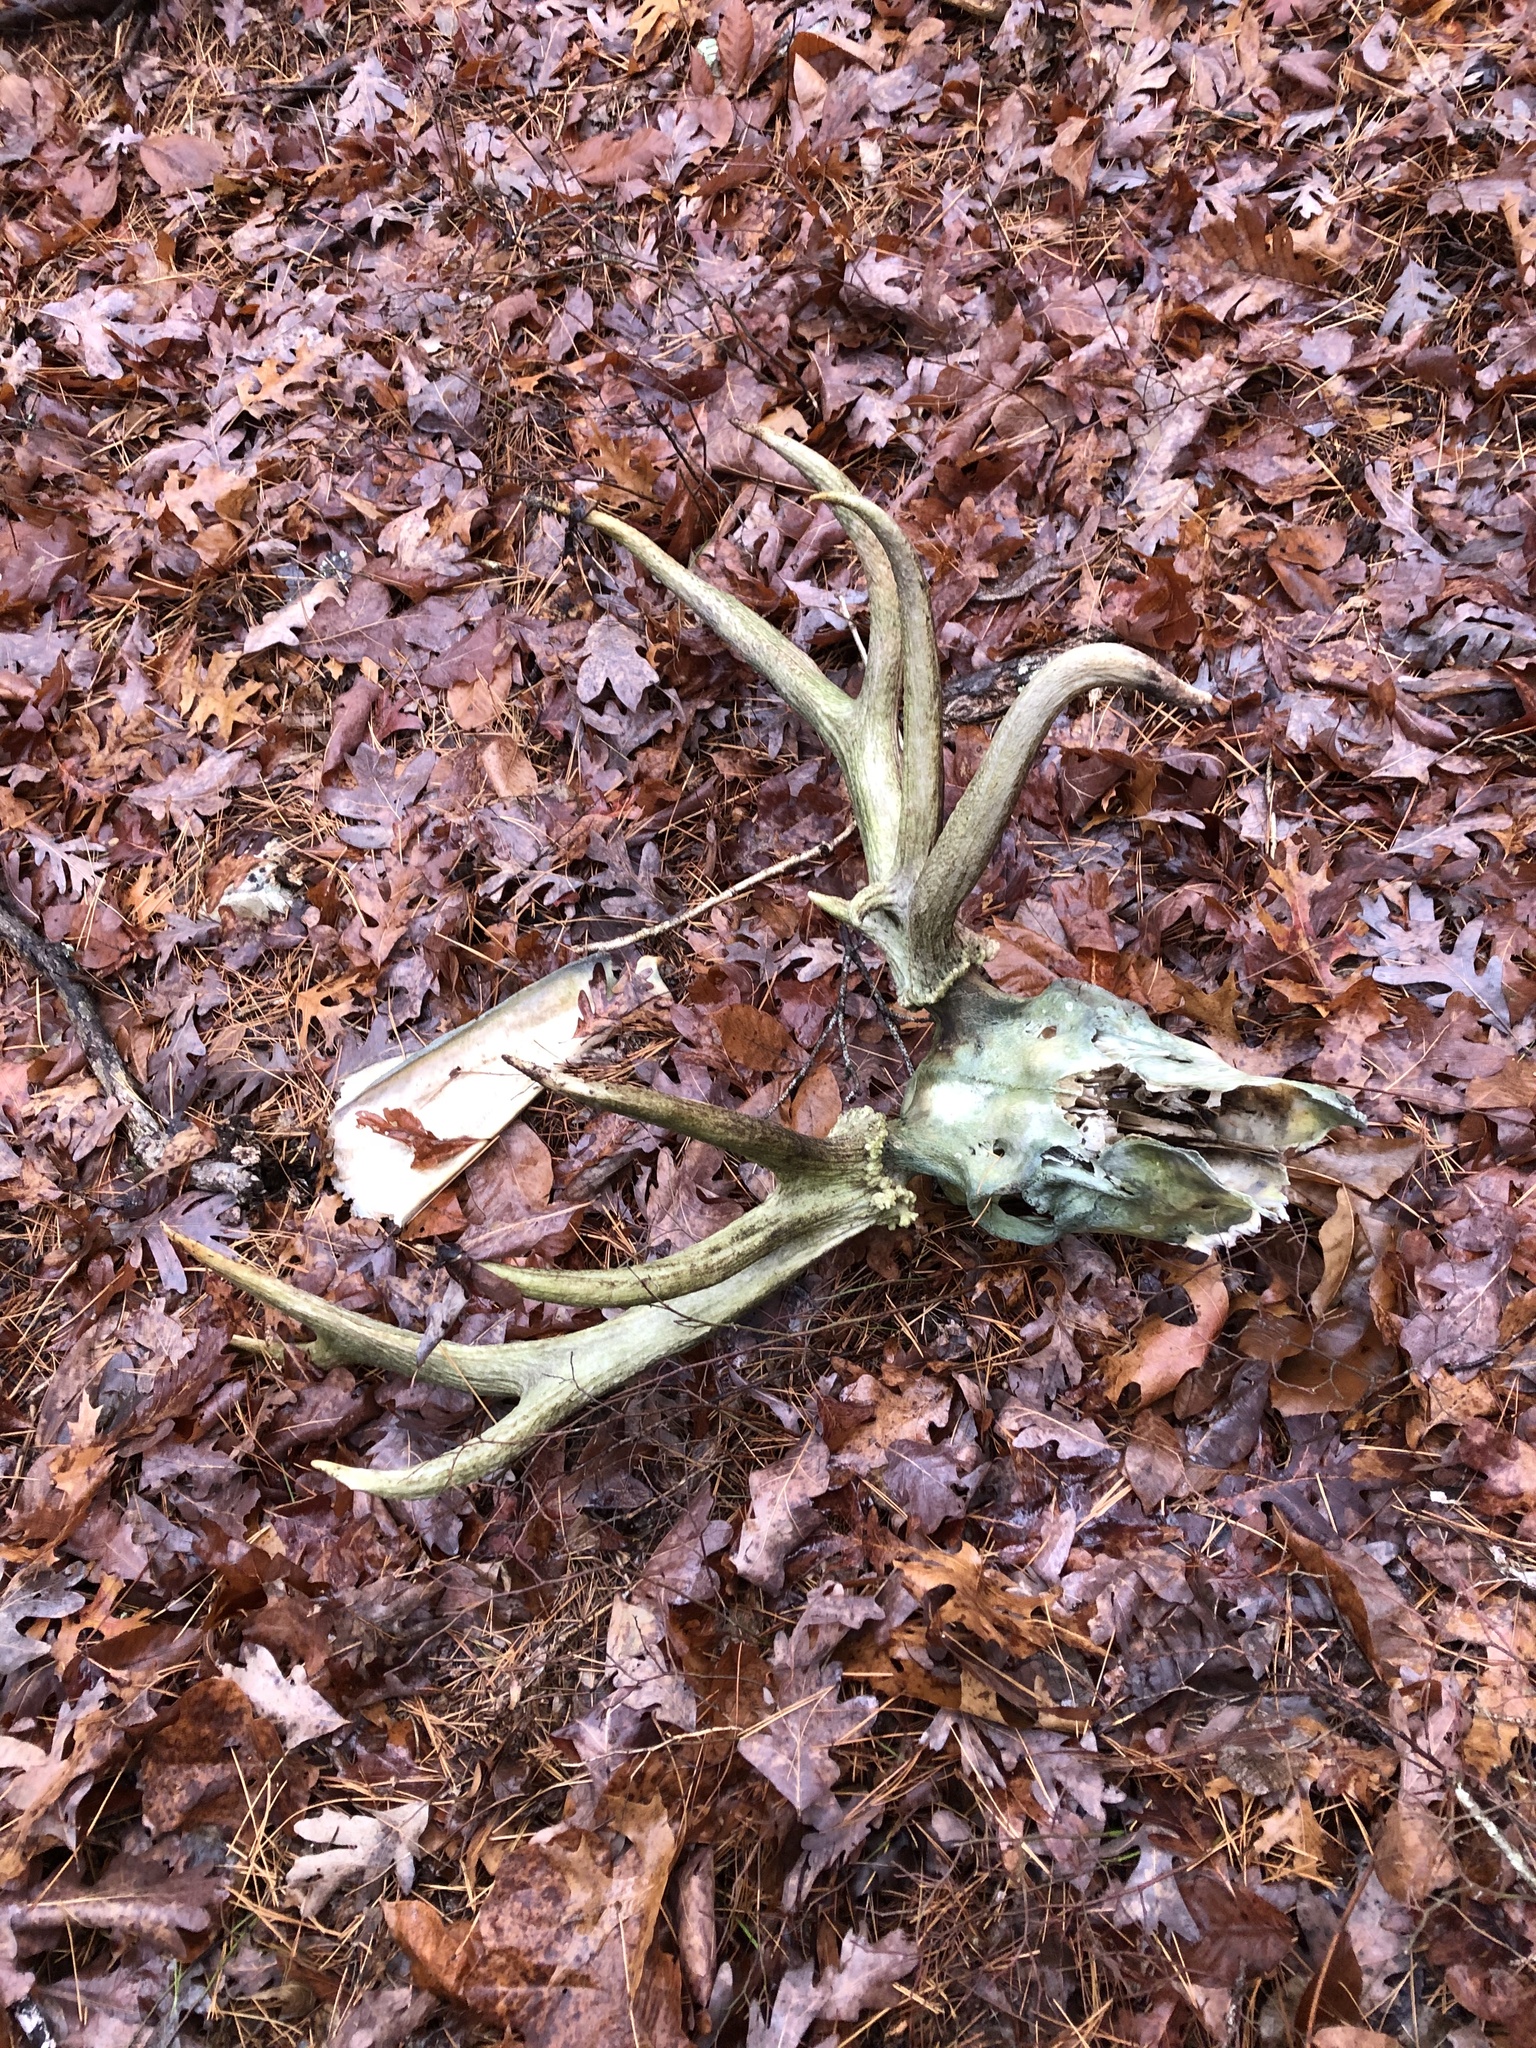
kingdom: Animalia
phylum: Chordata
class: Mammalia
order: Artiodactyla
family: Cervidae
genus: Cervus
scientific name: Cervus elaphus
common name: Red deer
